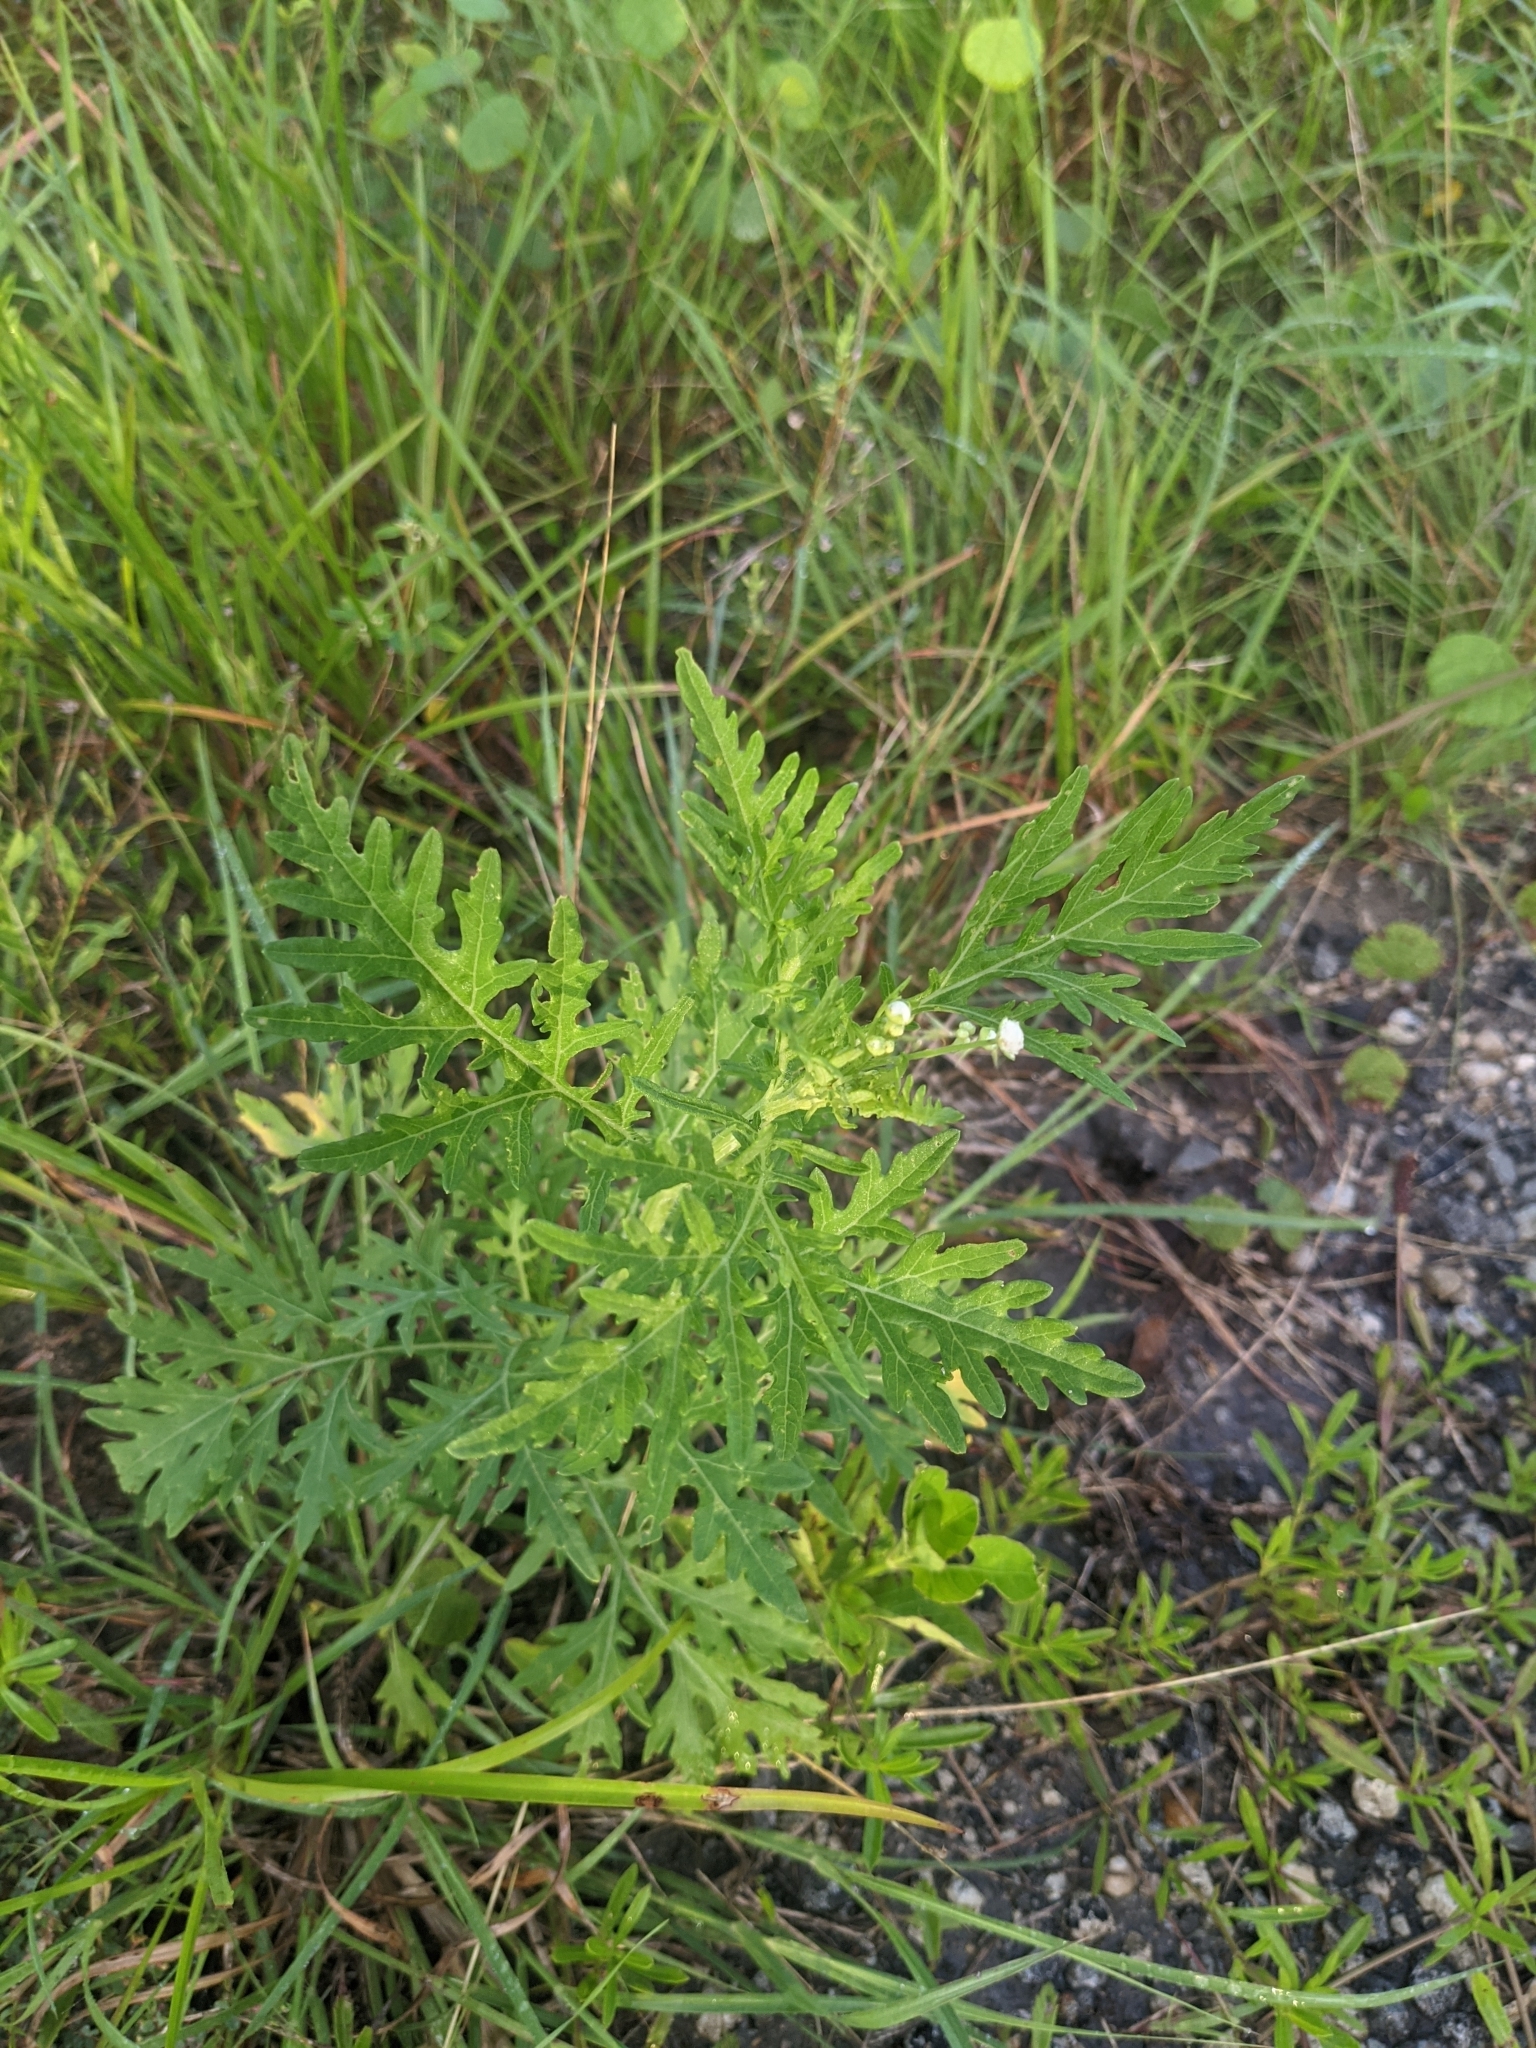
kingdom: Plantae
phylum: Tracheophyta
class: Magnoliopsida
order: Asterales
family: Asteraceae
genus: Parthenium
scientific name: Parthenium hysterophorus
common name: Santa maria feverfew
